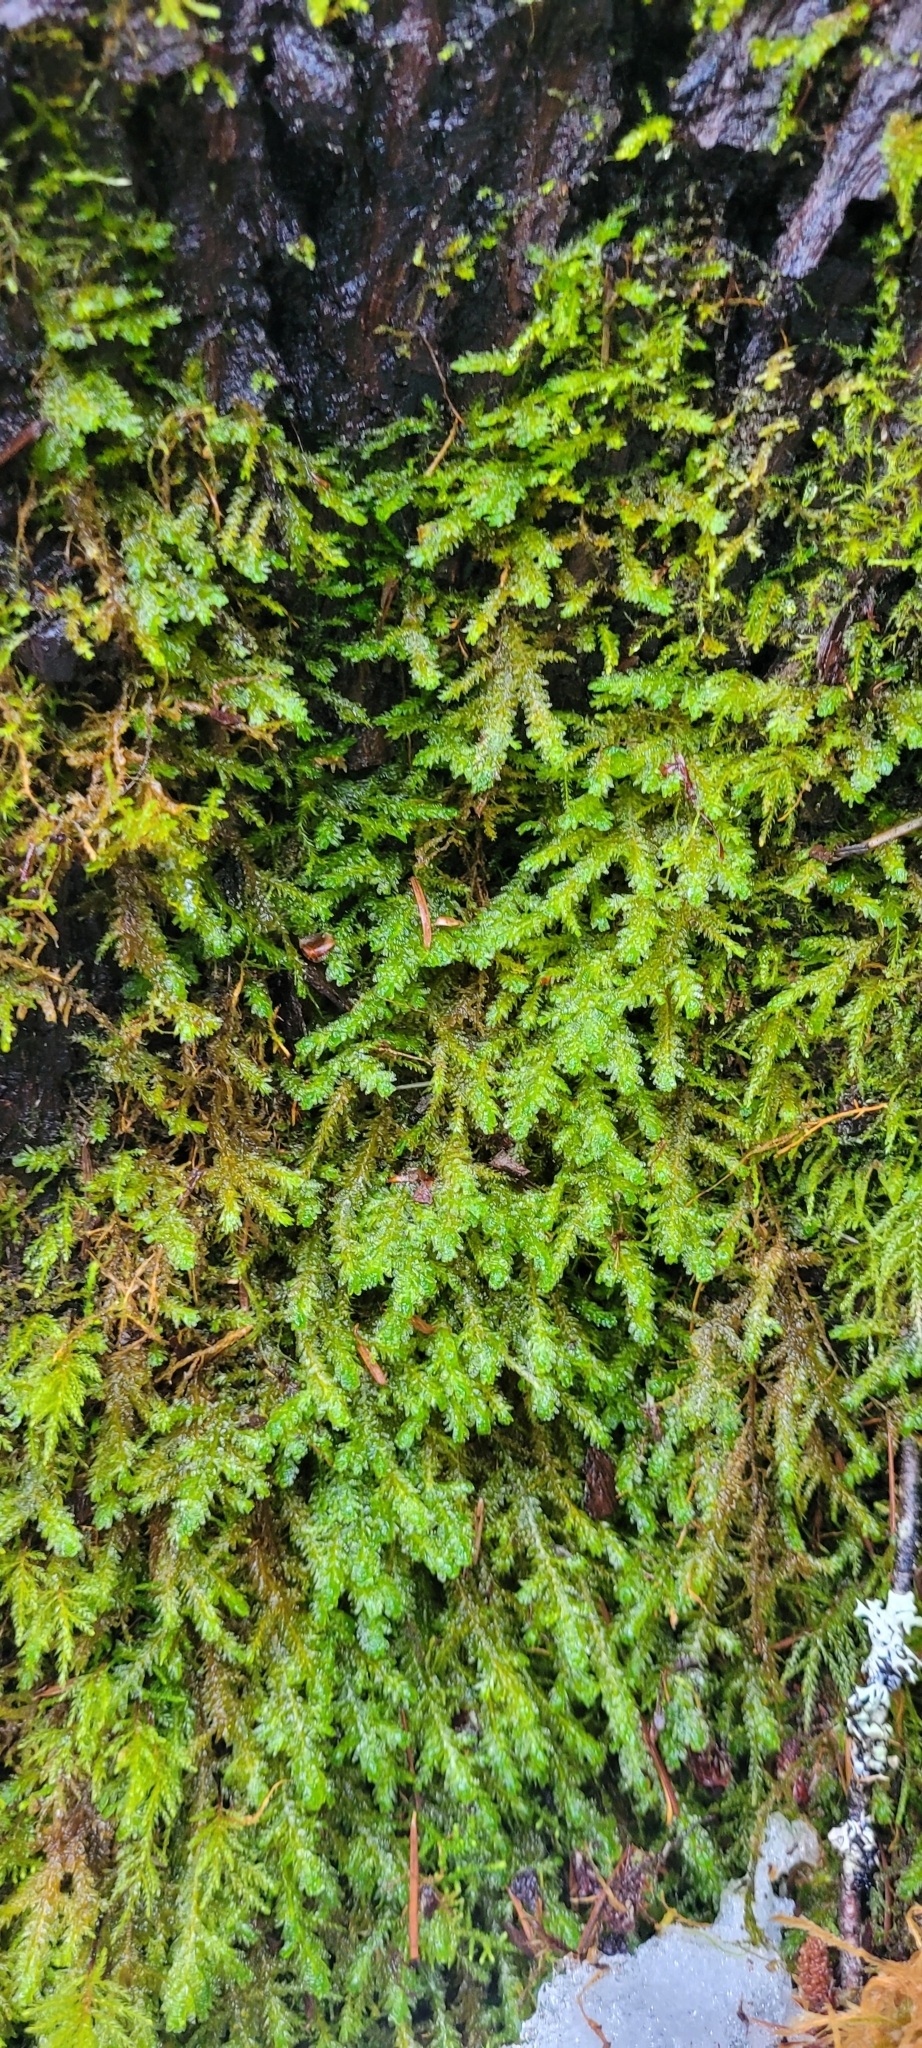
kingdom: Plantae
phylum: Bryophyta
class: Bryopsida
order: Hypnales
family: Neckeraceae
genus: Metaneckera
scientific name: Metaneckera menziesii
